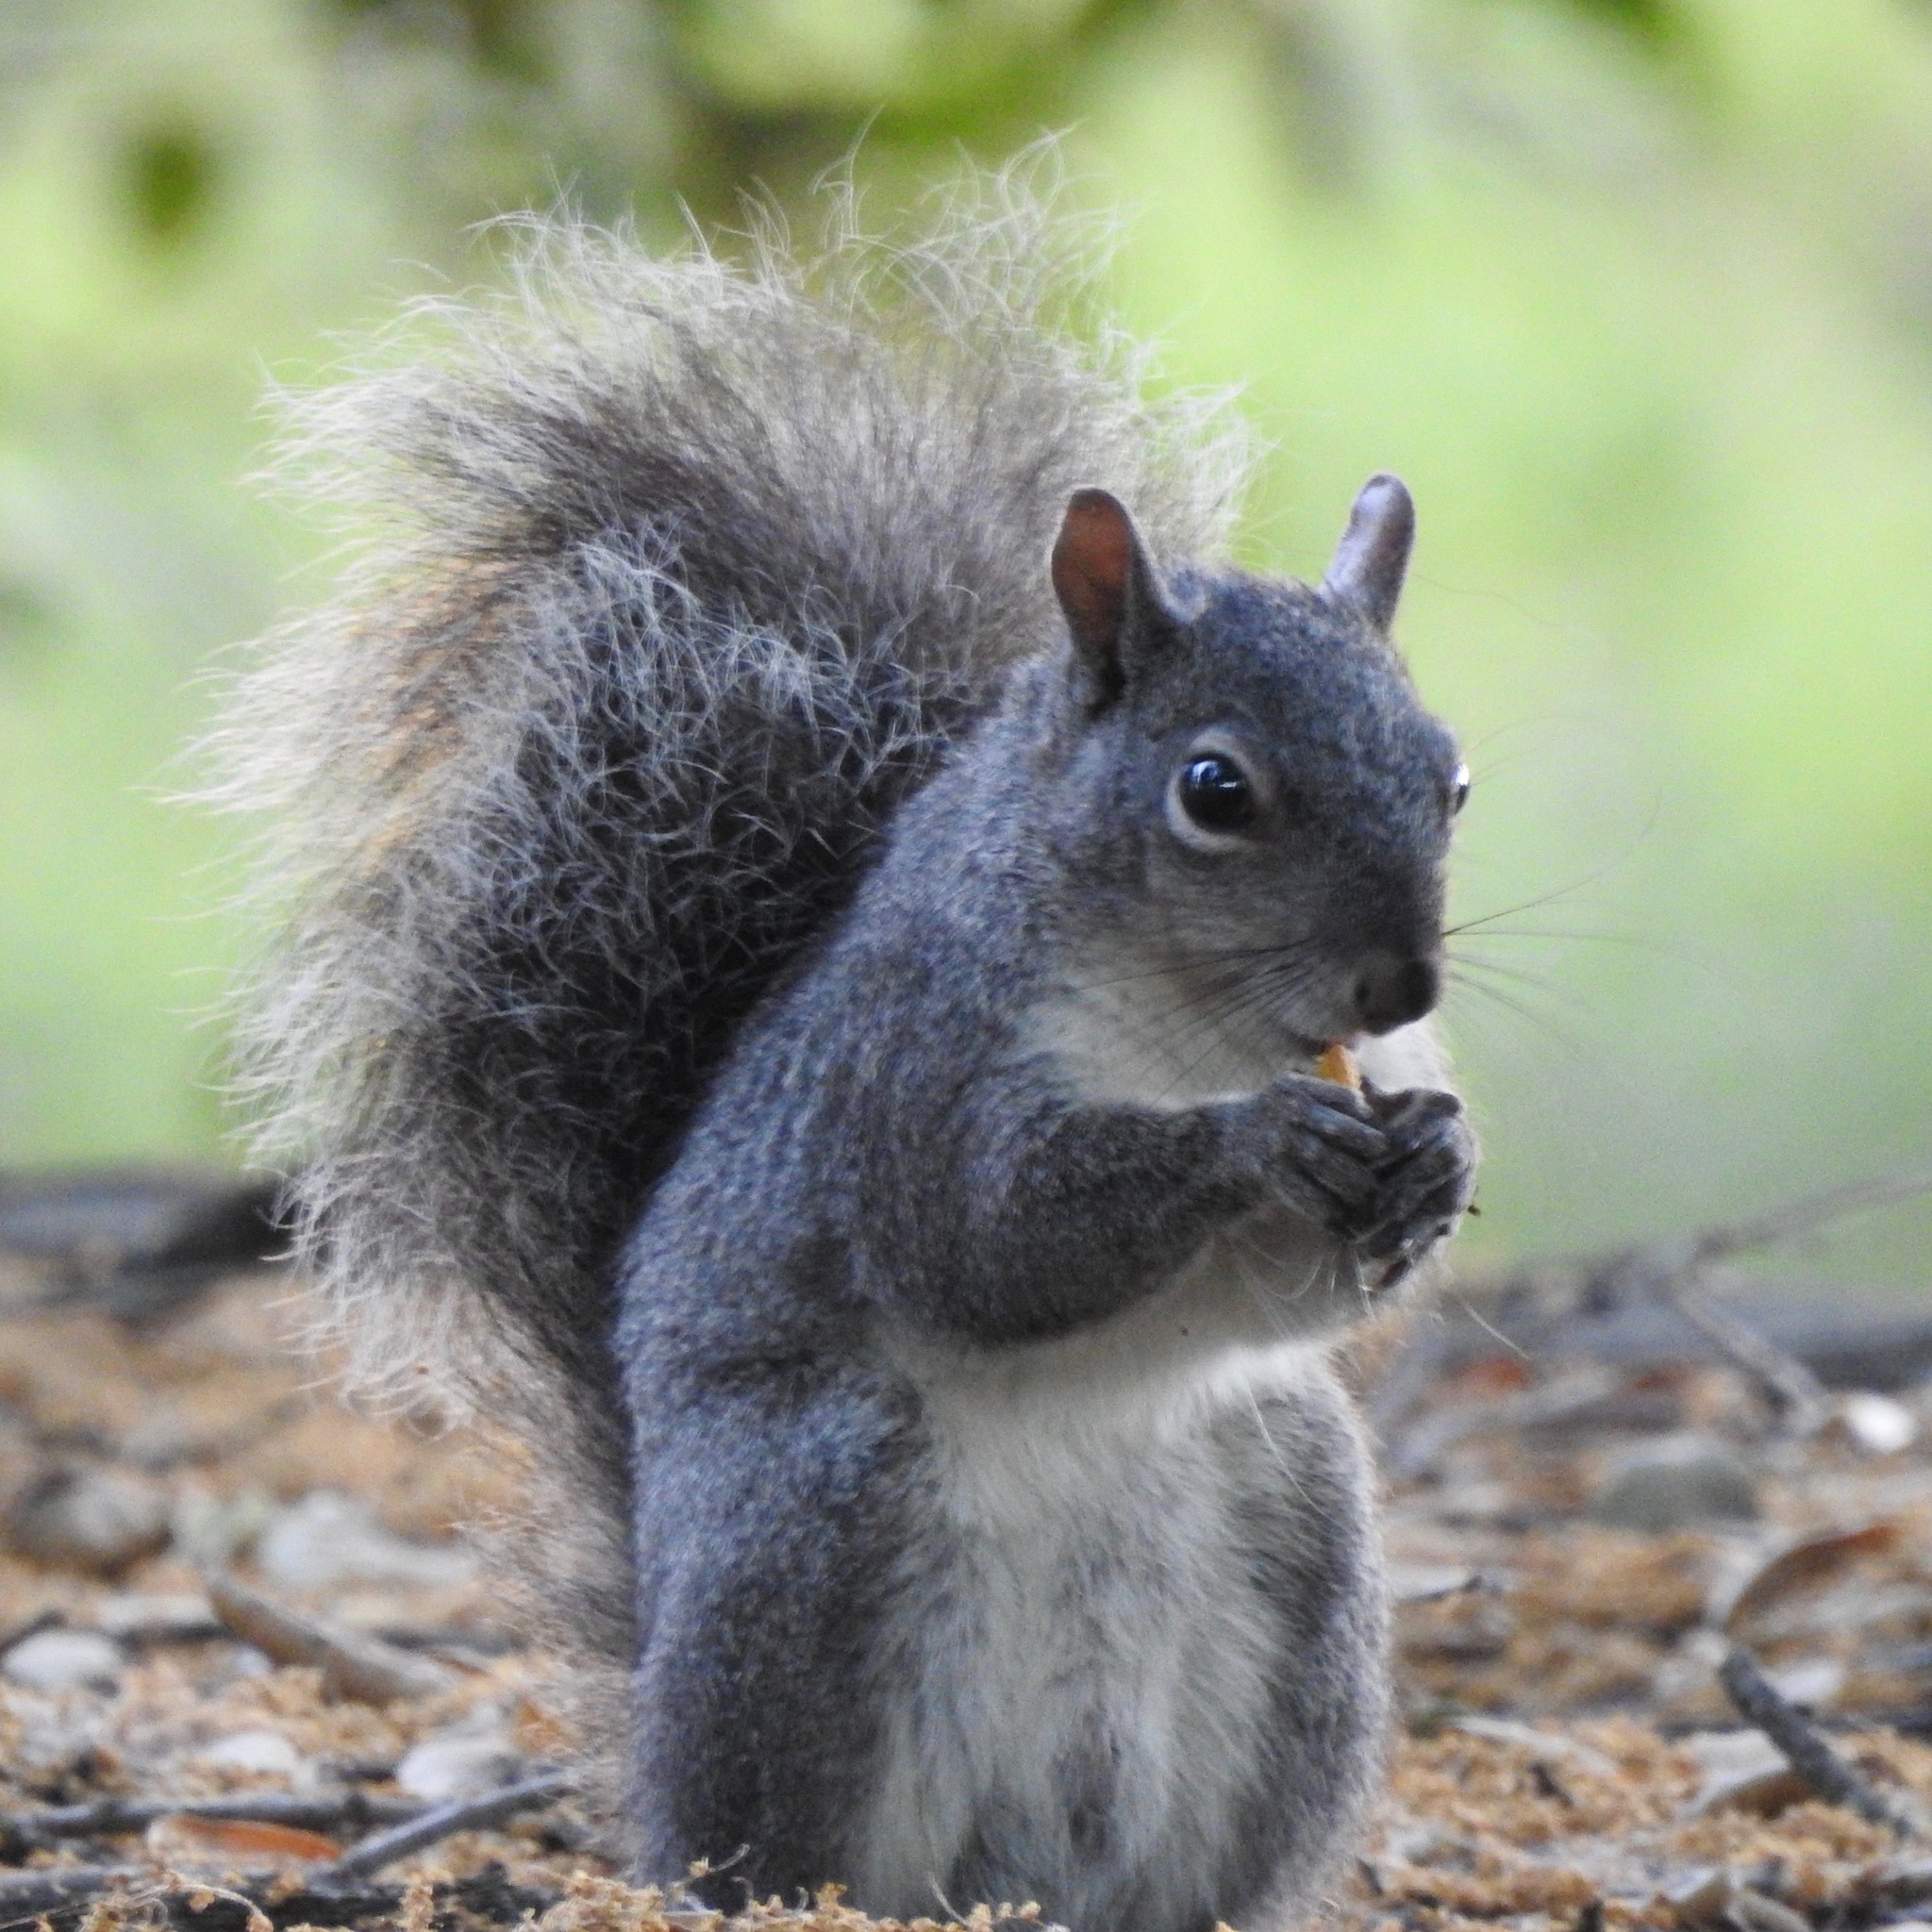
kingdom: Animalia
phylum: Chordata
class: Mammalia
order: Rodentia
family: Sciuridae
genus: Sciurus
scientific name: Sciurus griseus
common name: Western gray squirrel
